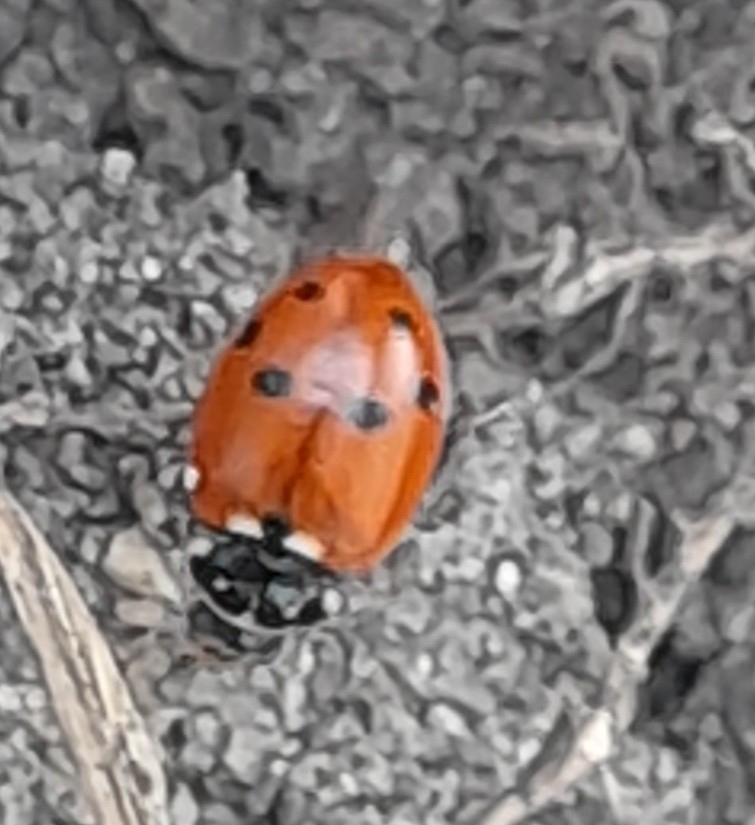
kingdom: Animalia
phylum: Arthropoda
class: Insecta
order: Coleoptera
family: Coccinellidae
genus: Hippodamia
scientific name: Hippodamia variegata
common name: Ladybird beetle
